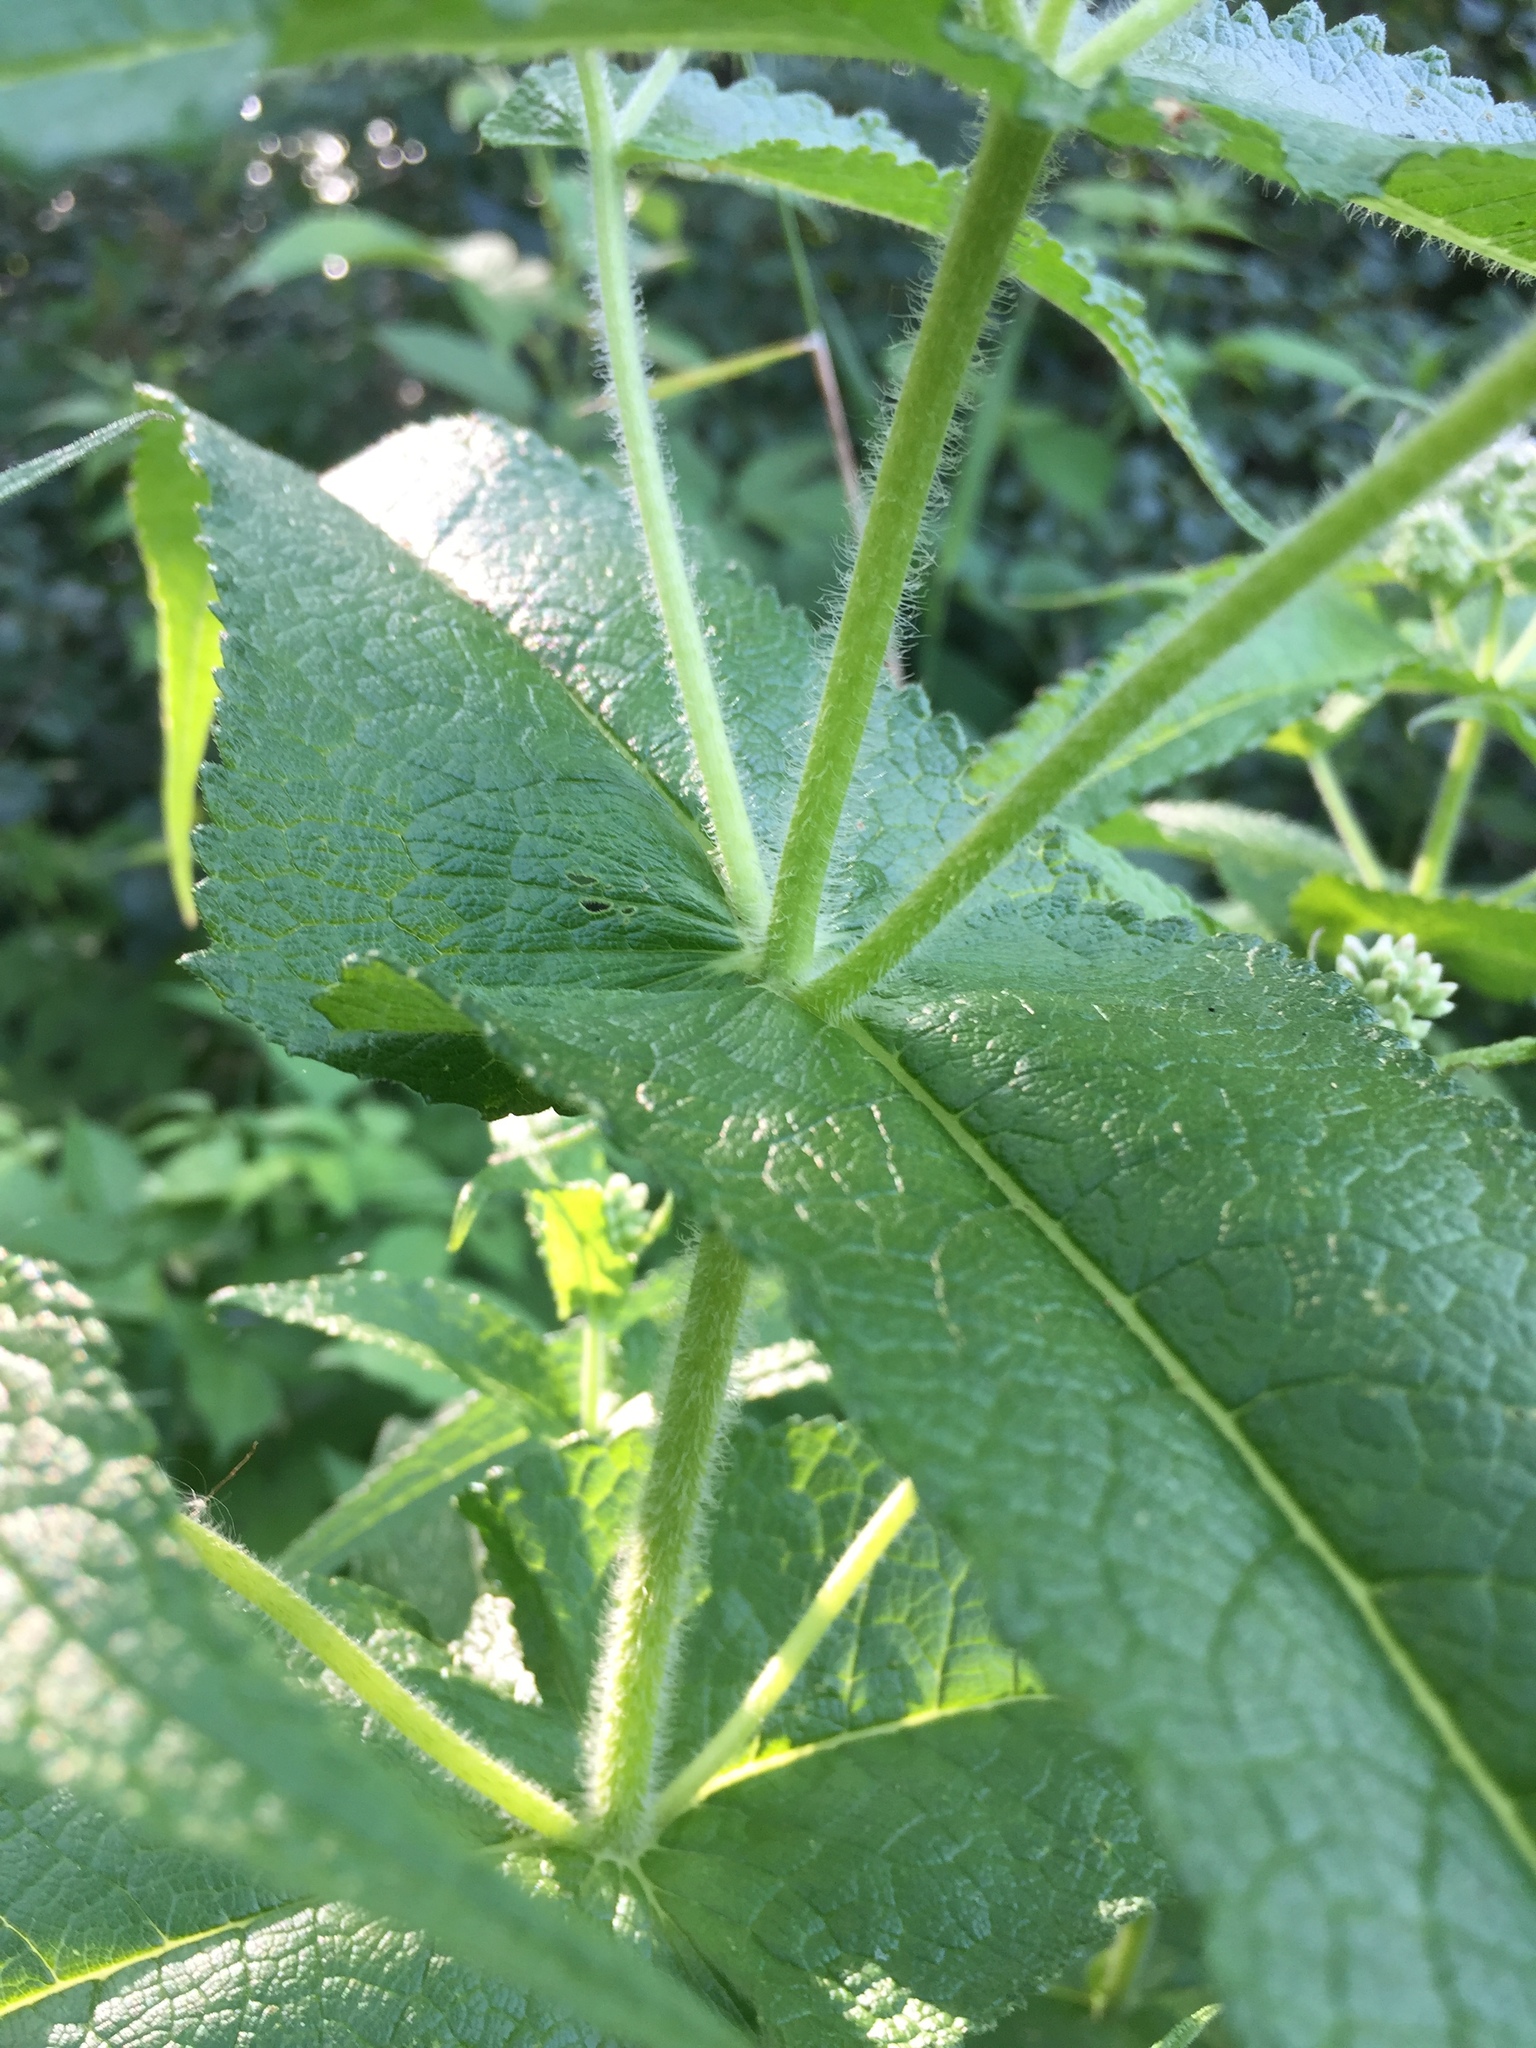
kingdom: Plantae
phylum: Tracheophyta
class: Magnoliopsida
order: Asterales
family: Asteraceae
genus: Eupatorium
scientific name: Eupatorium perfoliatum
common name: Boneset
